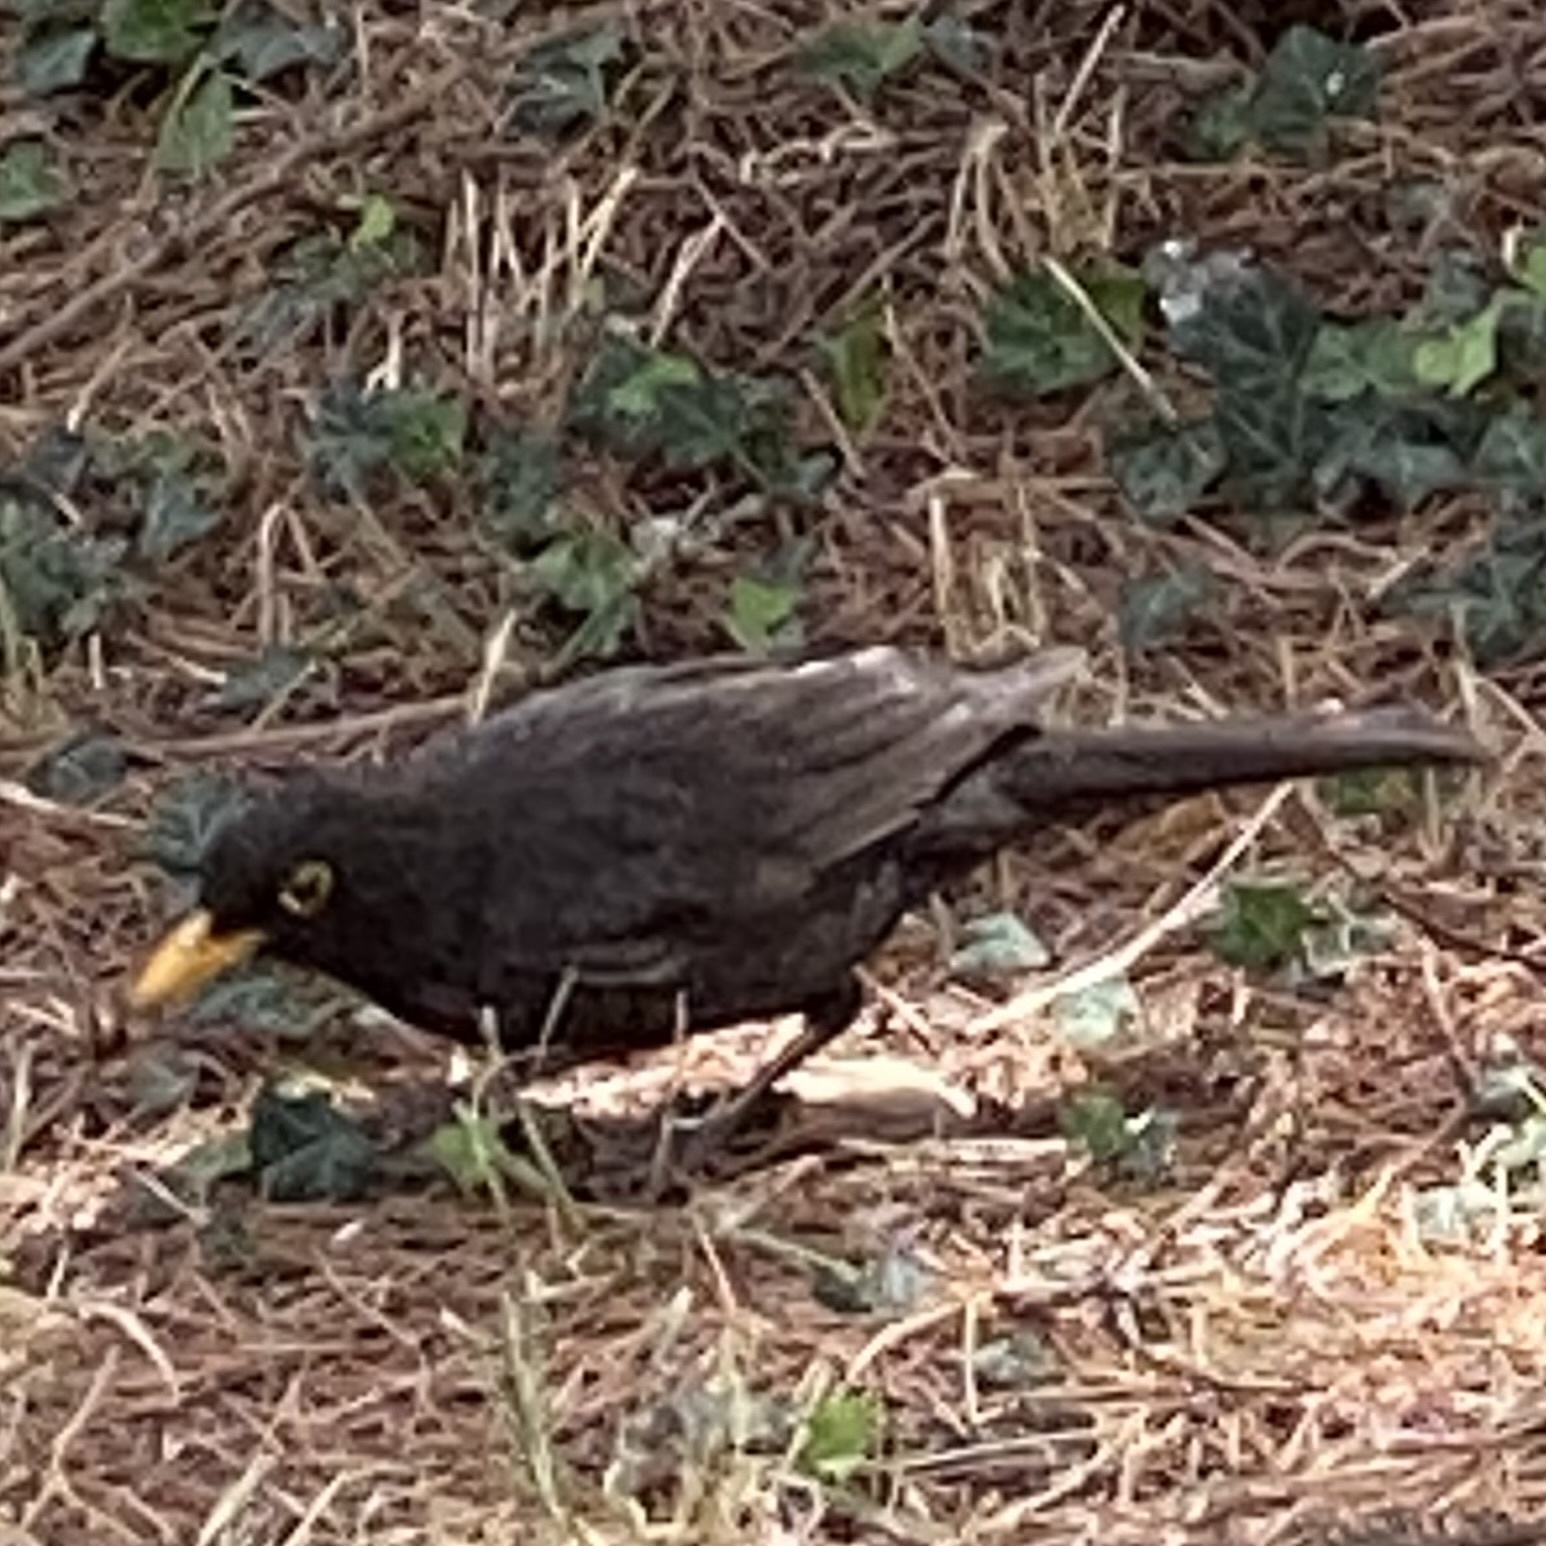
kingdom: Animalia
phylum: Chordata
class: Aves
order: Passeriformes
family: Turdidae
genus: Turdus
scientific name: Turdus merula
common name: Common blackbird
